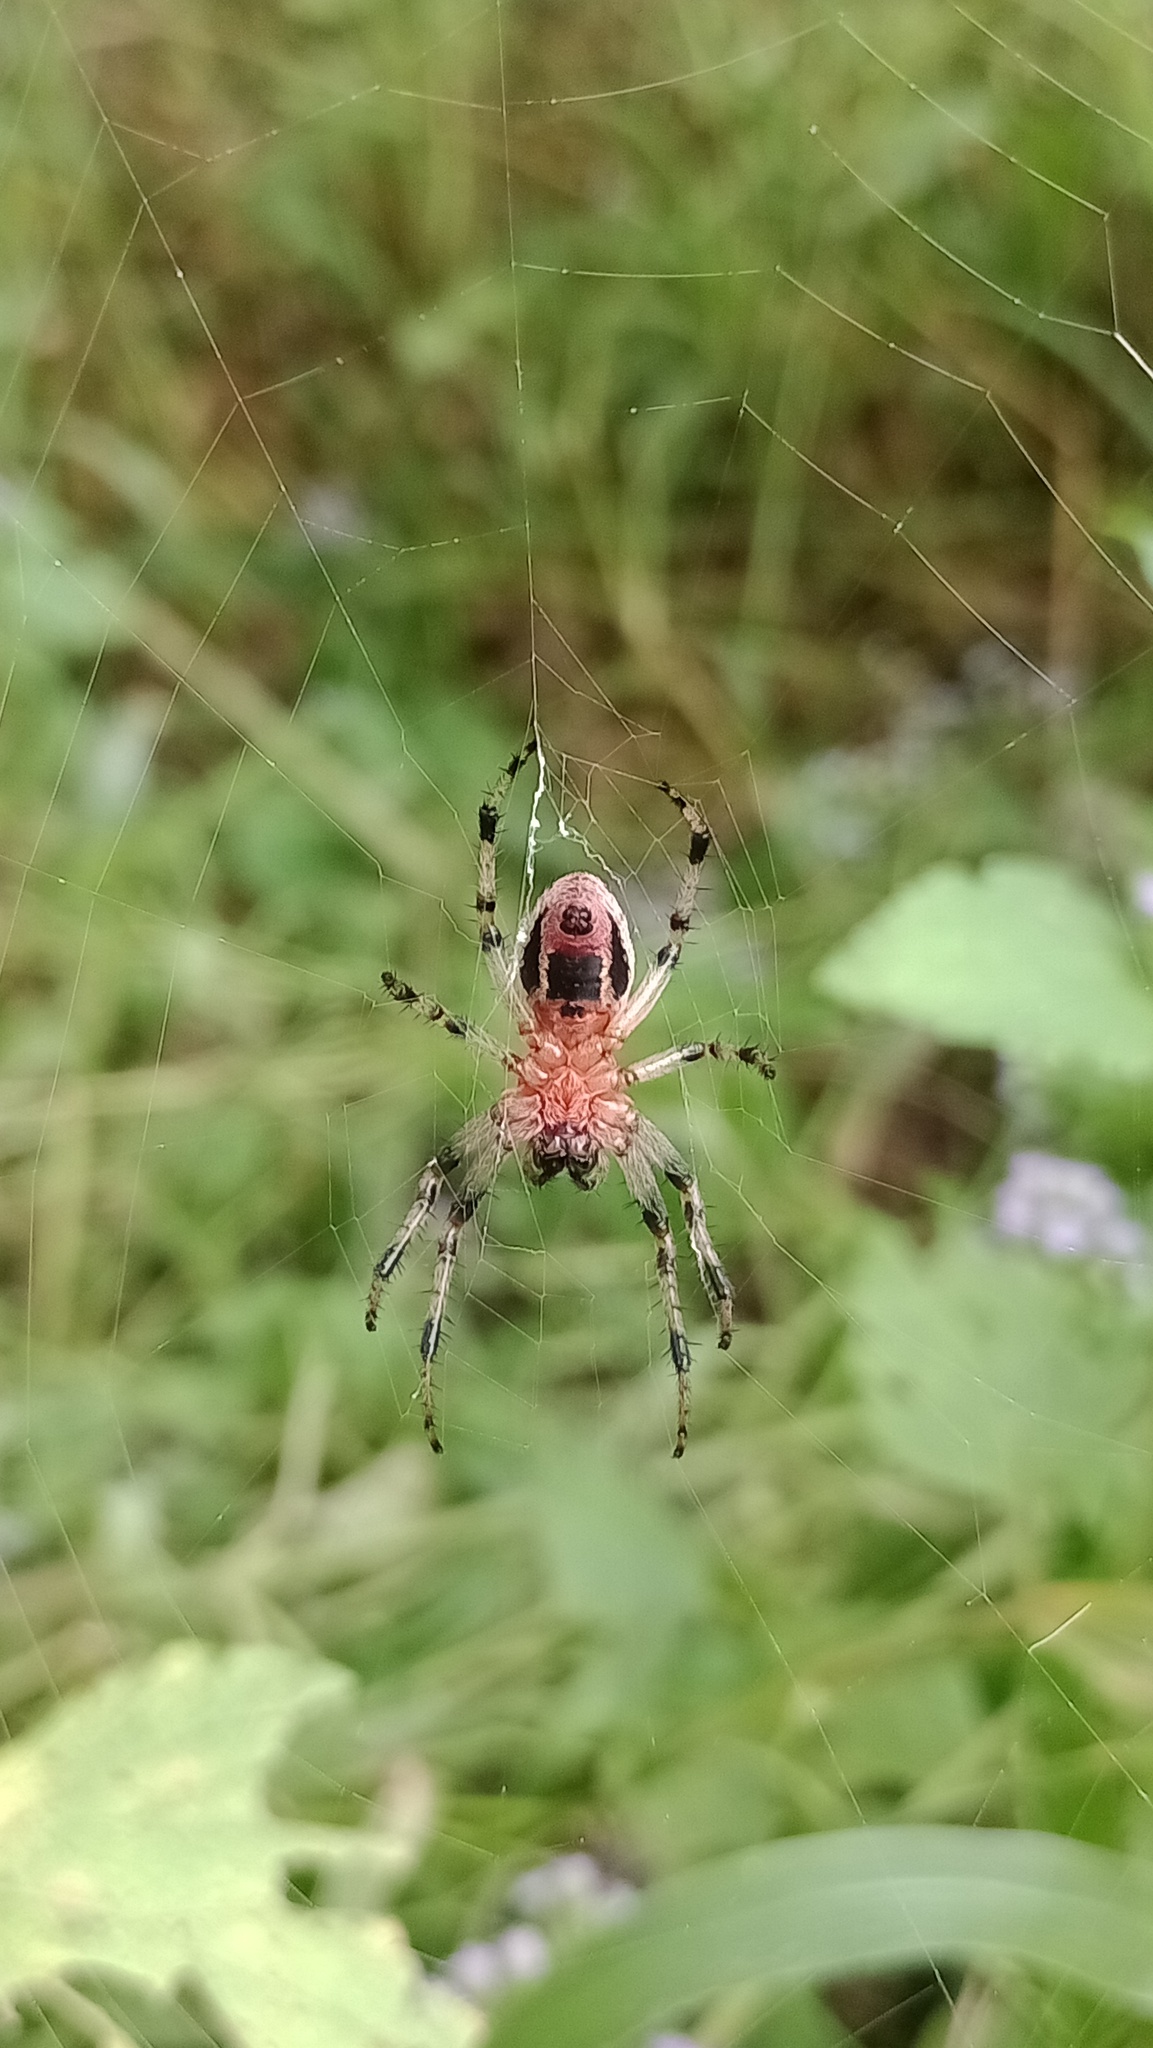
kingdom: Animalia
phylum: Arthropoda
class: Arachnida
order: Araneae
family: Araneidae
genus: Alpaida
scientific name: Alpaida veniliae
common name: Orb weavers
